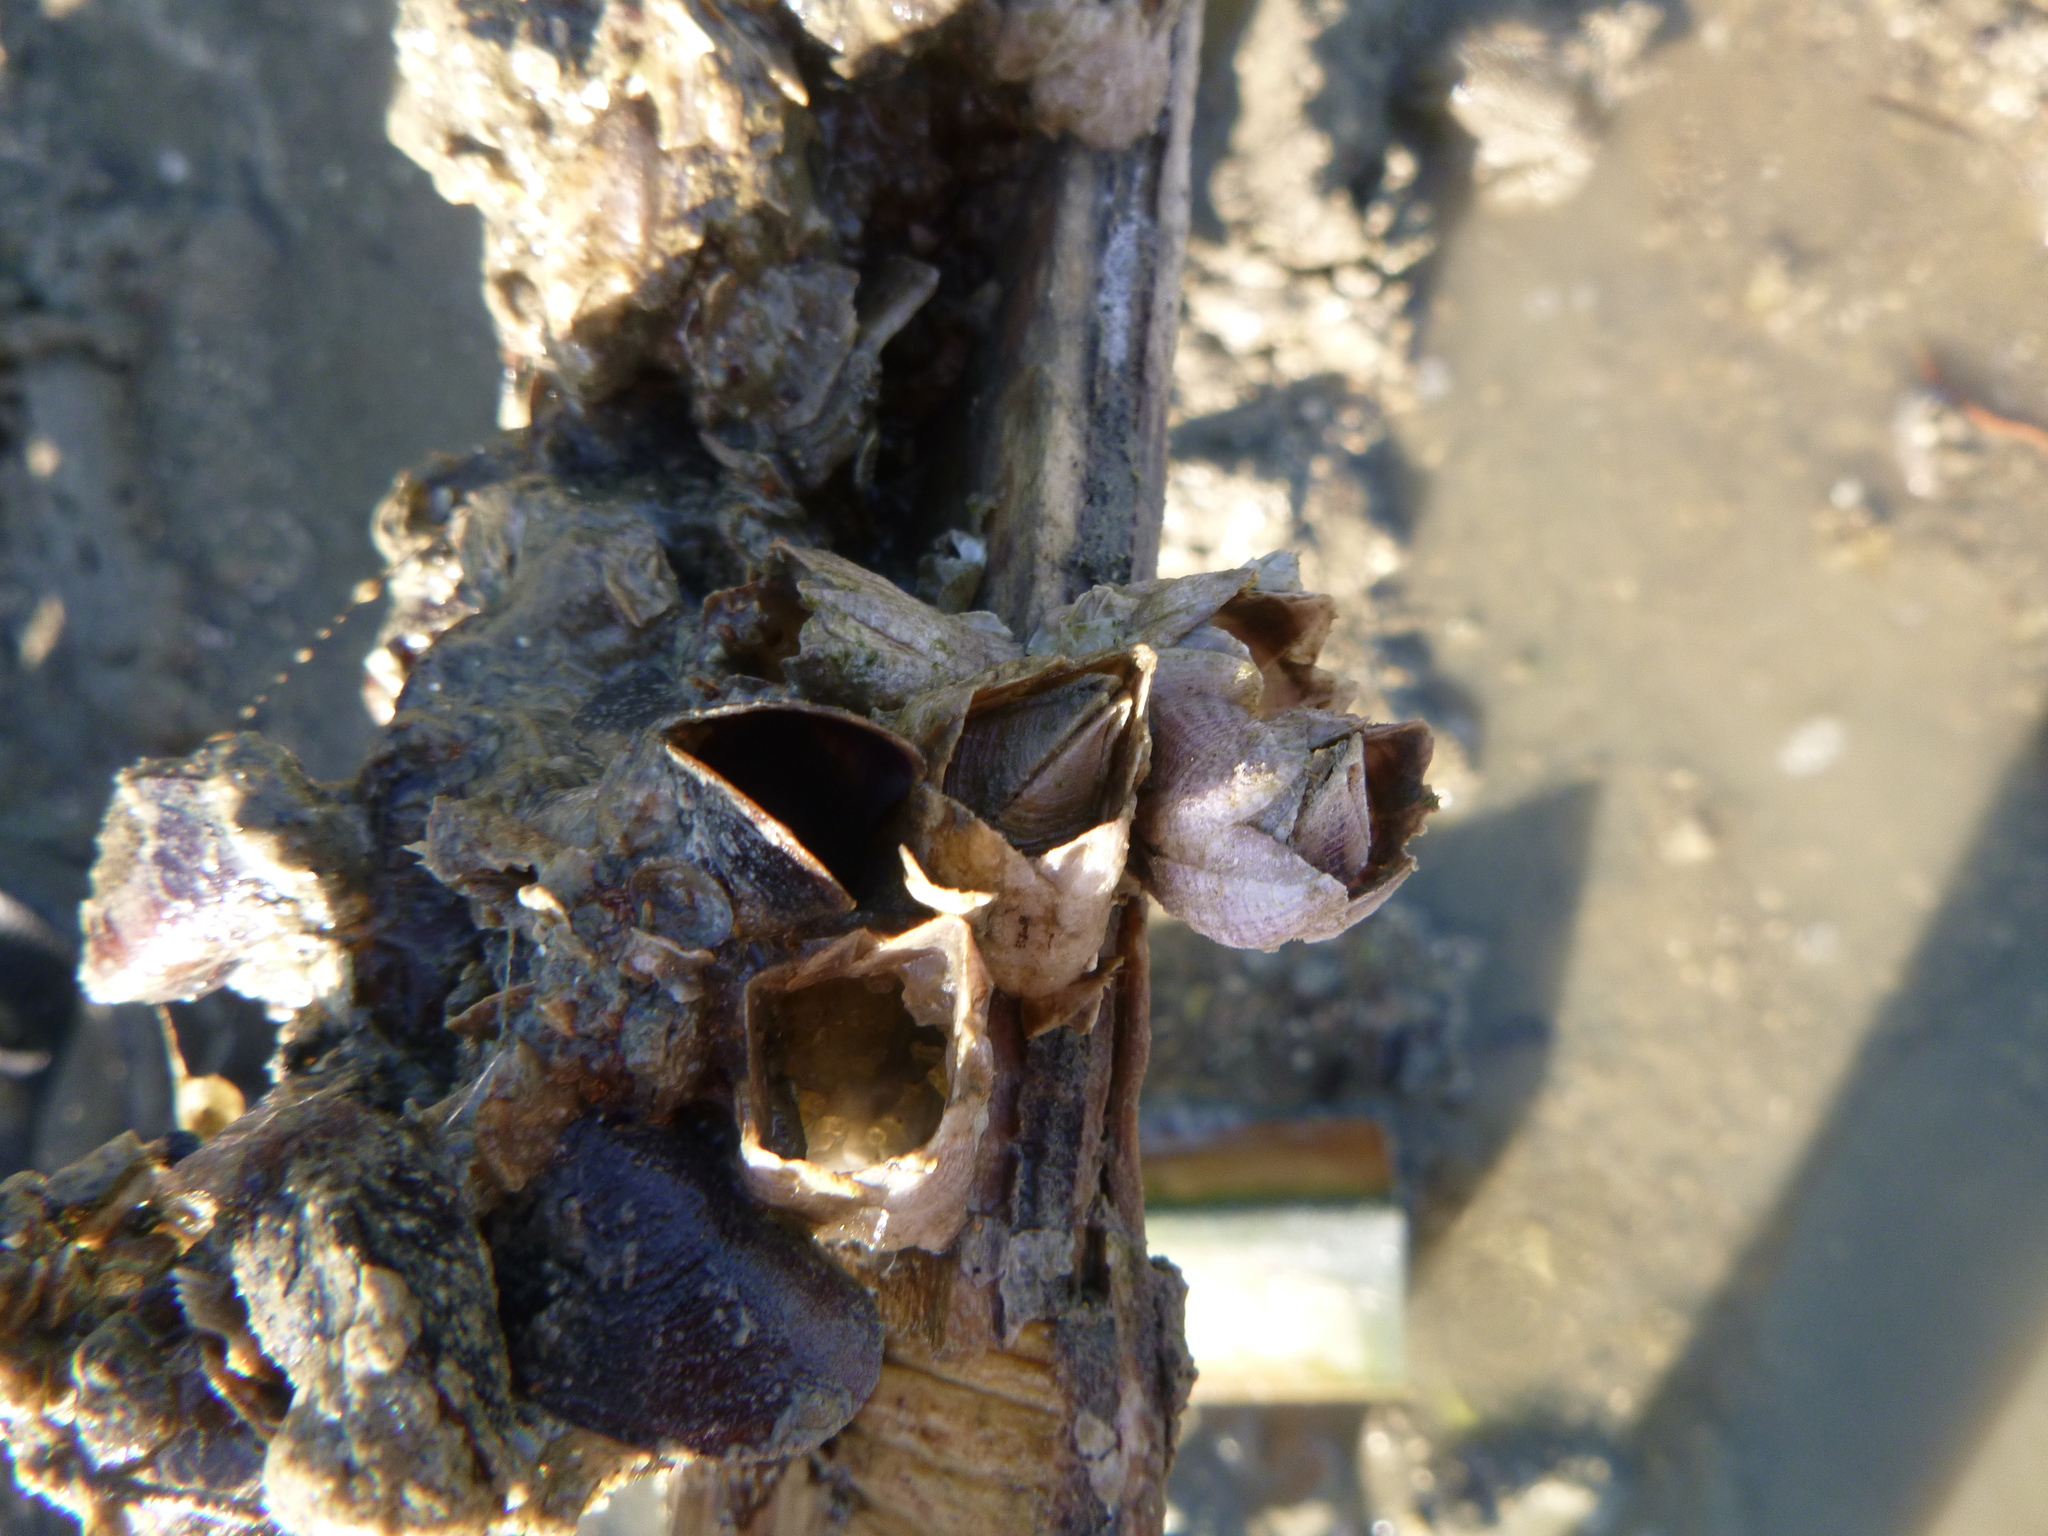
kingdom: Animalia
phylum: Arthropoda
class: Maxillopoda
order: Sessilia
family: Balanidae
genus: Fistulobalanus
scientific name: Fistulobalanus kondakovi
